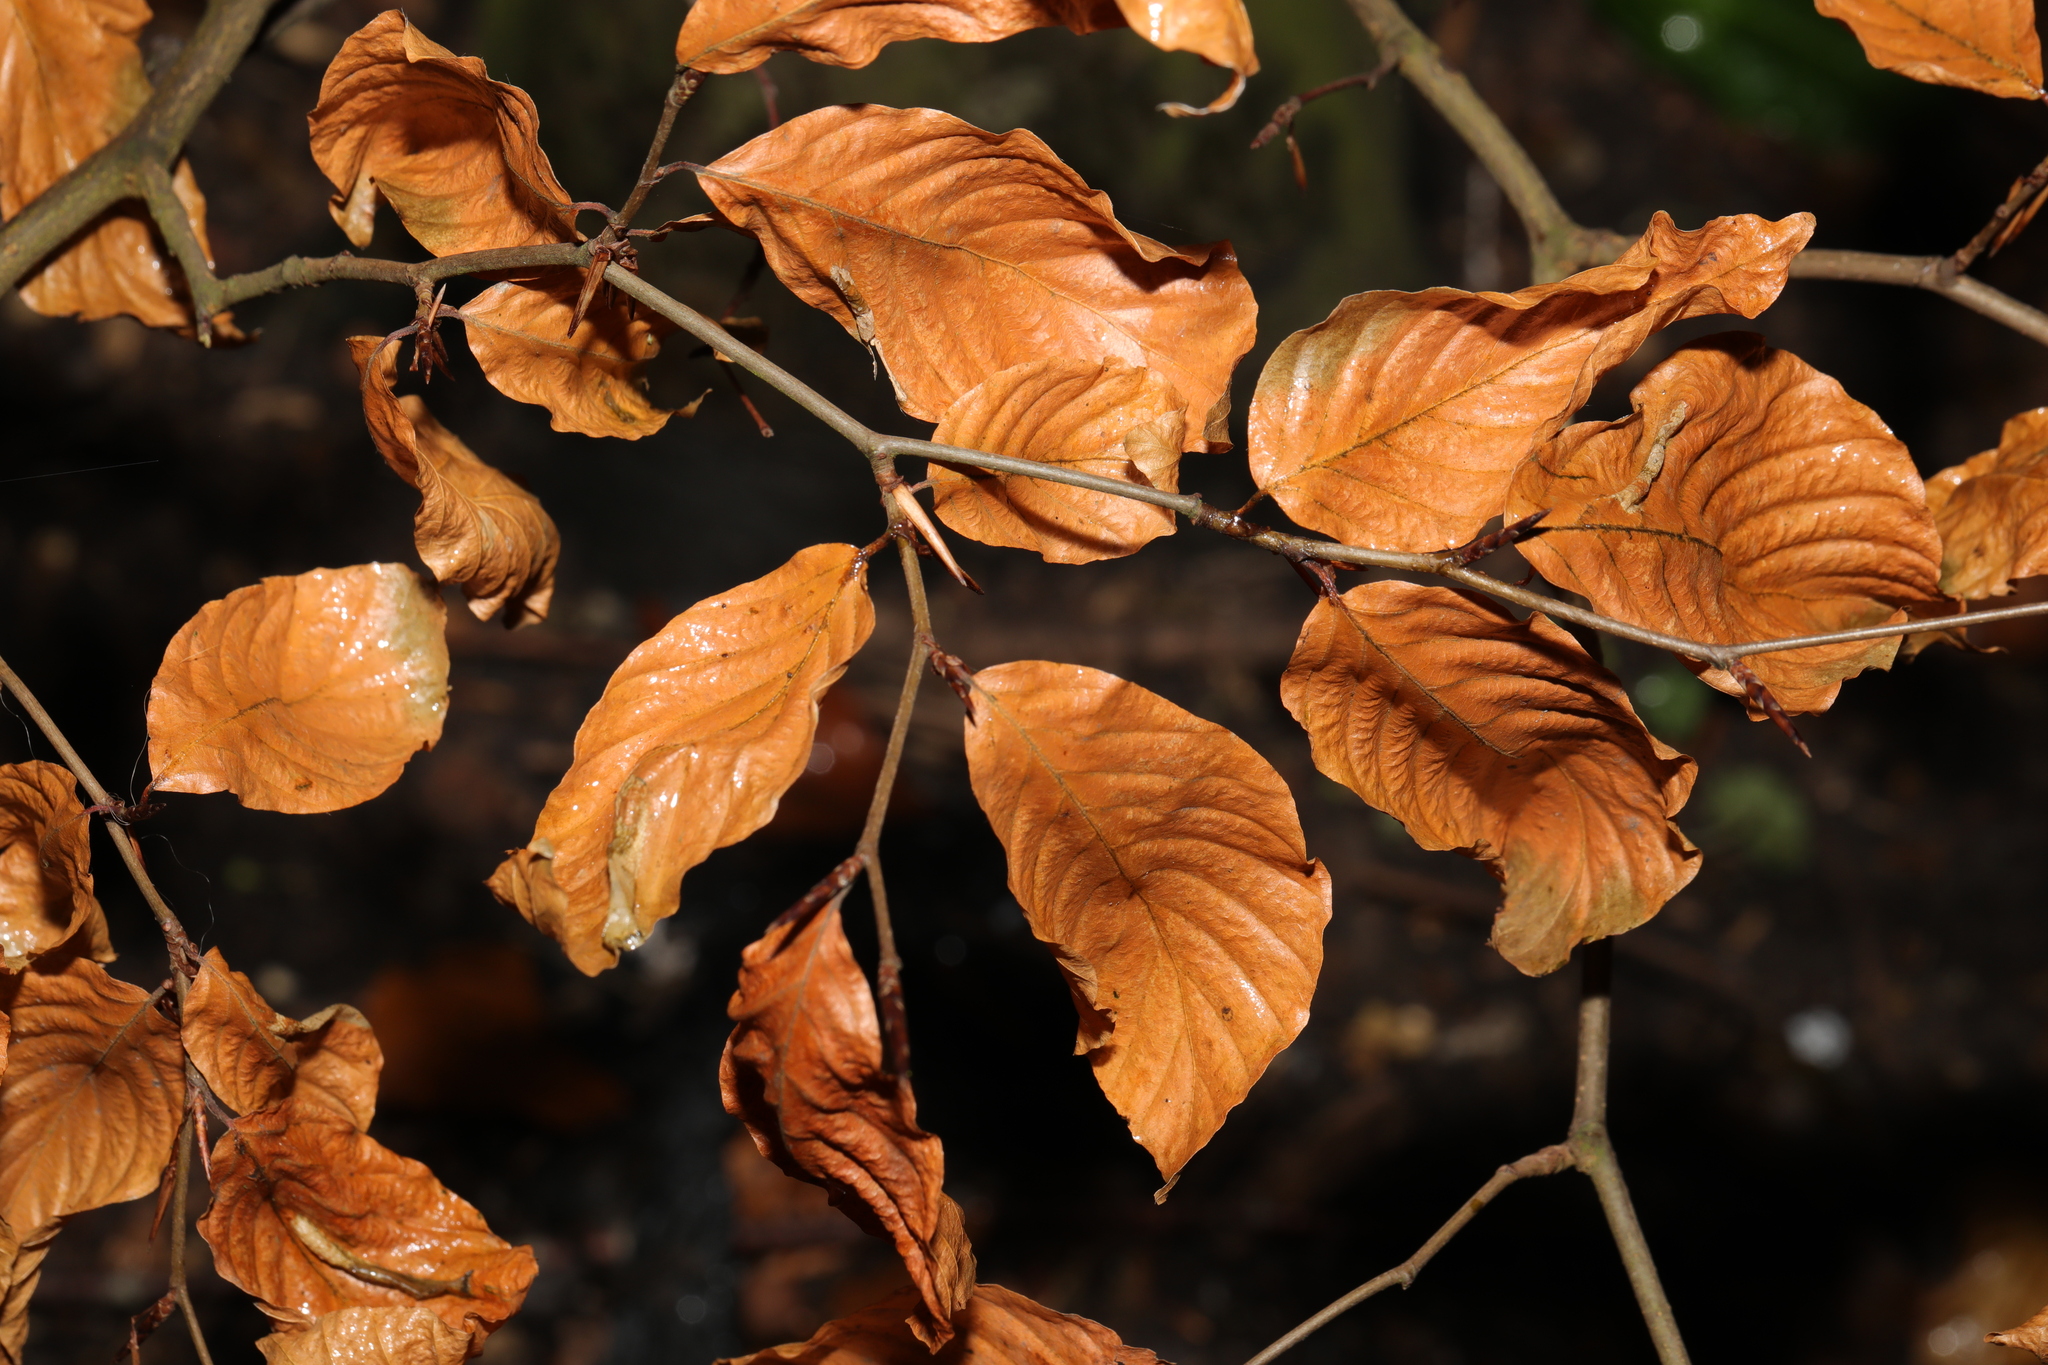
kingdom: Plantae
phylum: Tracheophyta
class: Magnoliopsida
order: Fagales
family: Fagaceae
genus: Fagus
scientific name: Fagus sylvatica
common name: Beech
